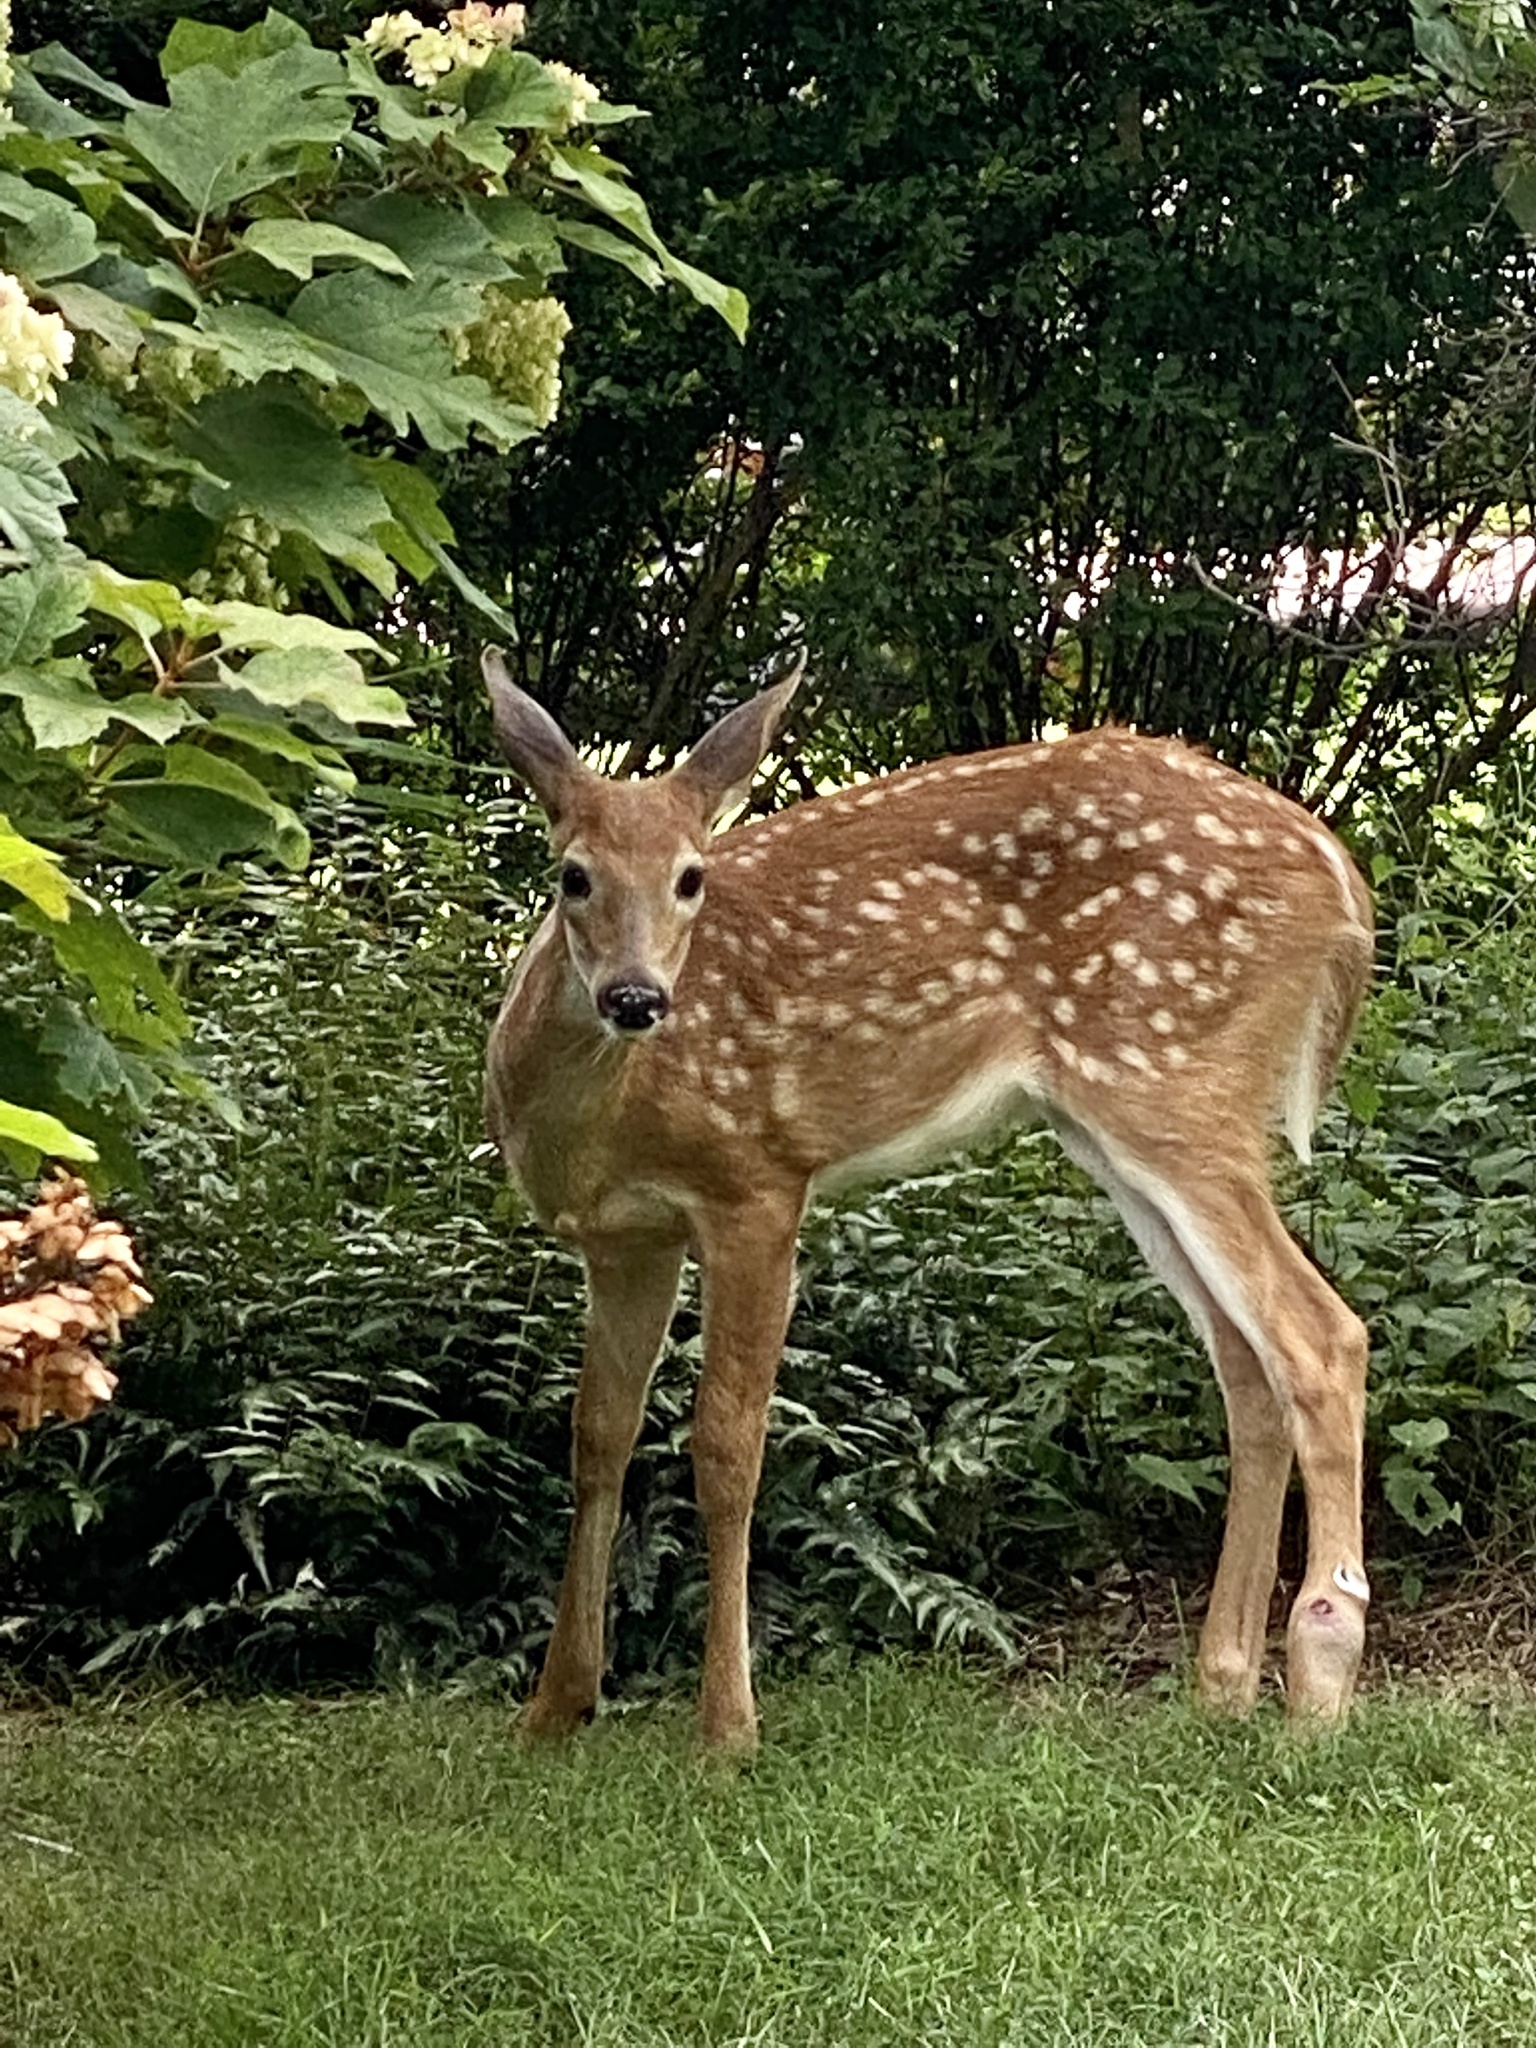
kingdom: Animalia
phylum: Chordata
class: Mammalia
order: Artiodactyla
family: Cervidae
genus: Odocoileus
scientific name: Odocoileus virginianus
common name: White-tailed deer
